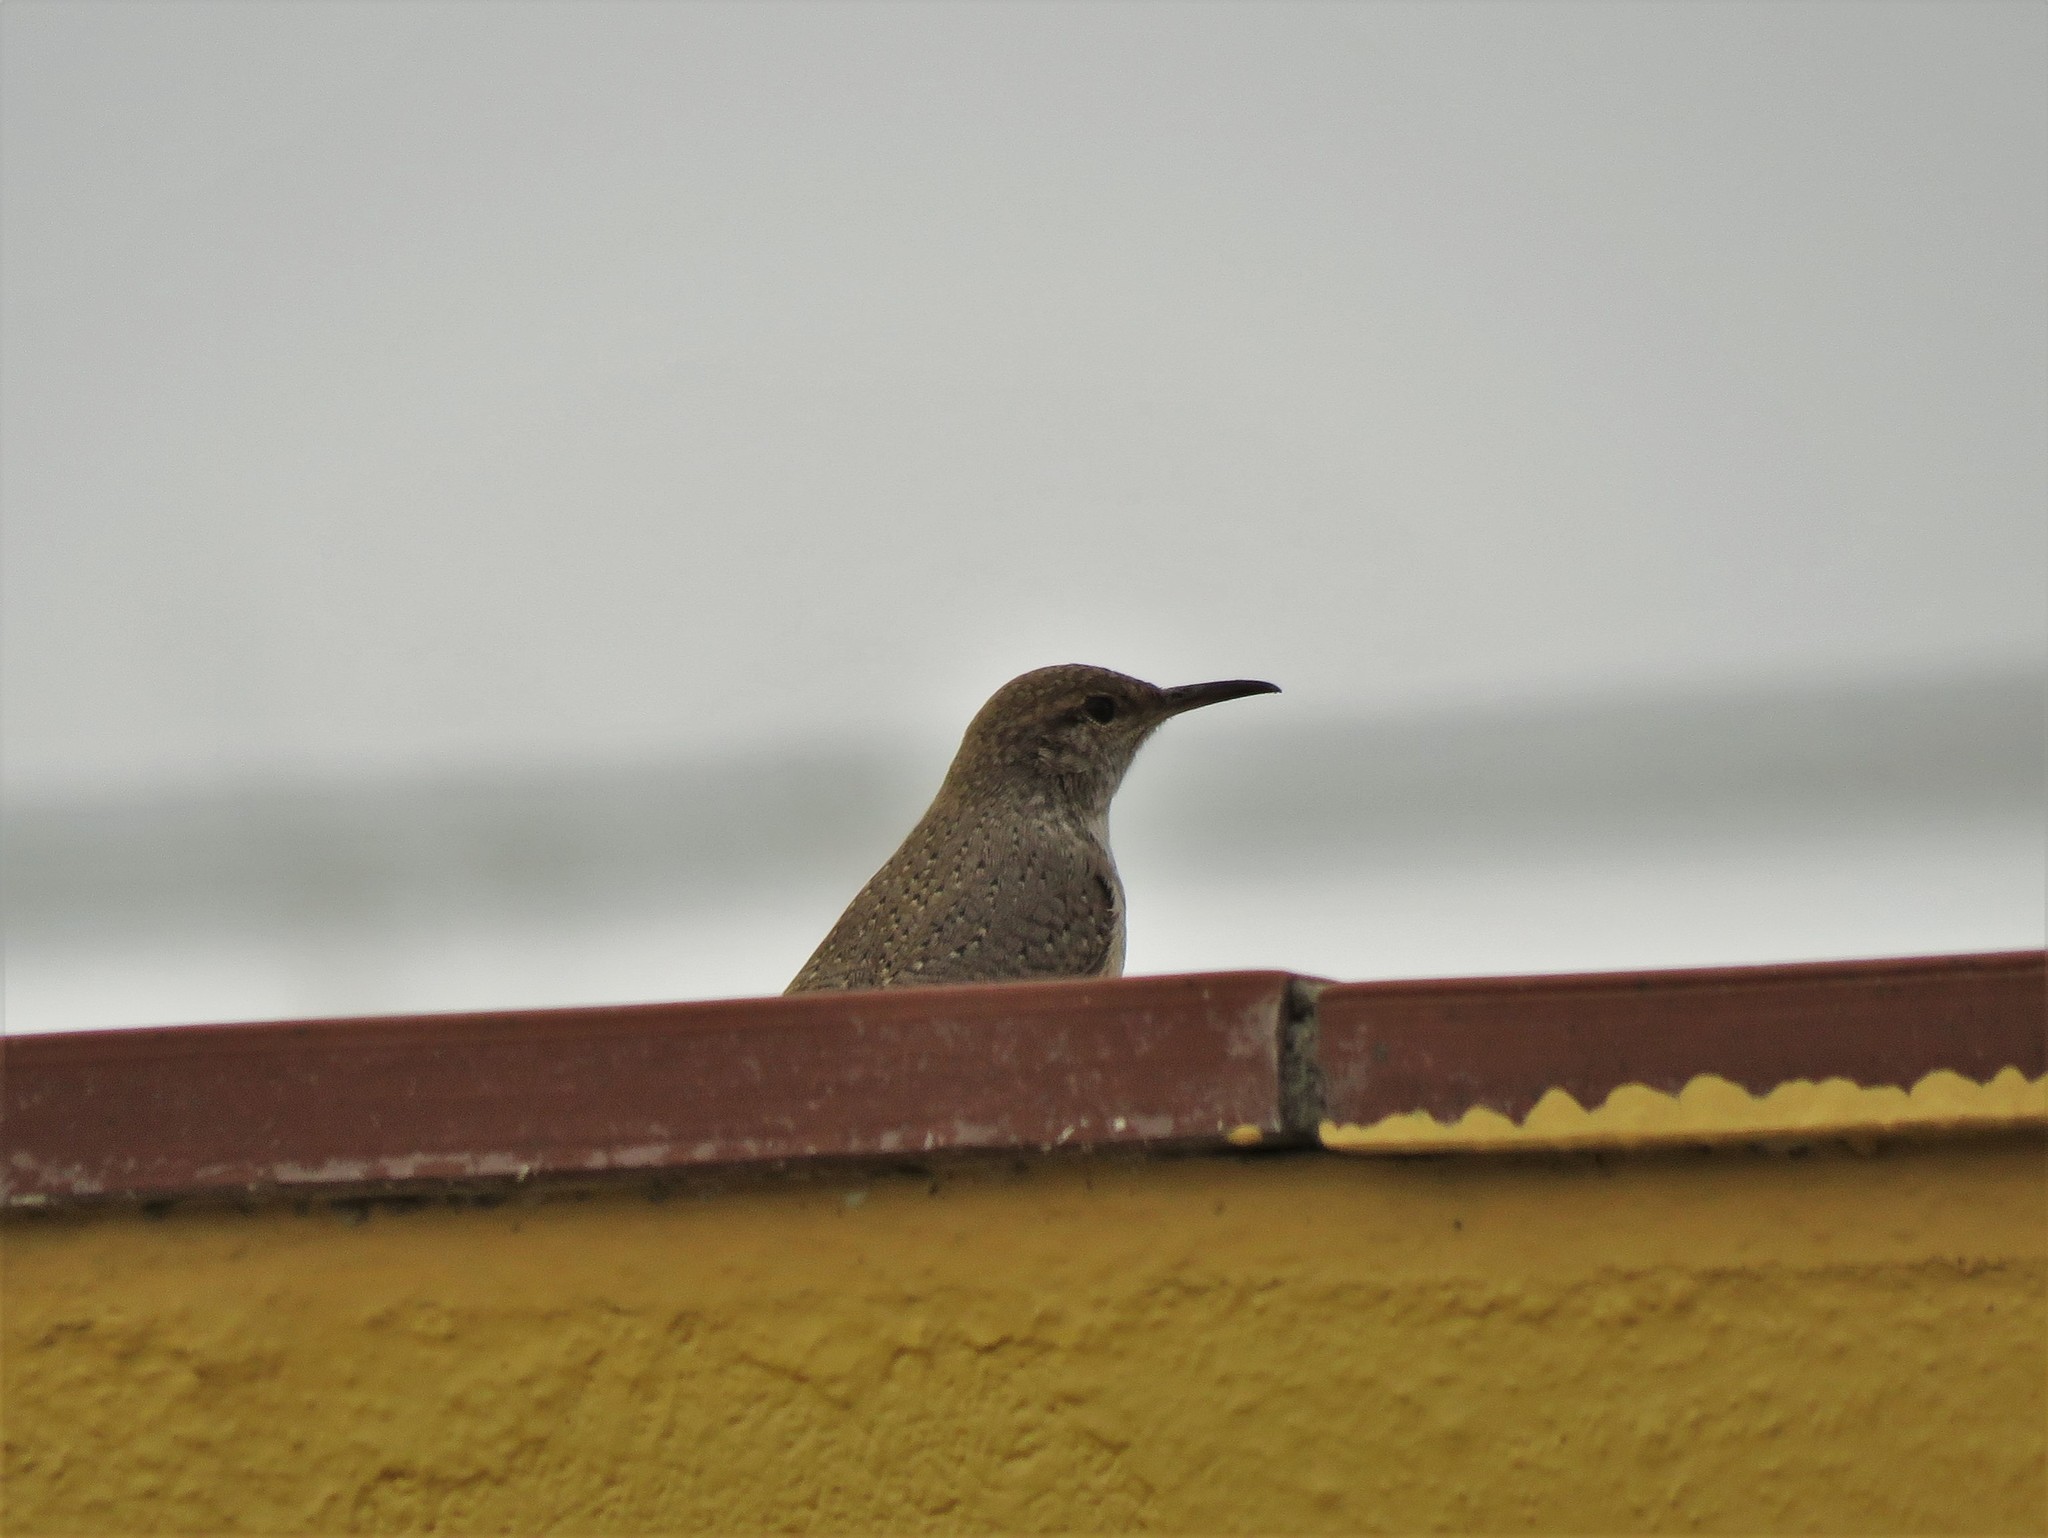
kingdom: Animalia
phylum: Chordata
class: Aves
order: Passeriformes
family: Troglodytidae
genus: Salpinctes
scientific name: Salpinctes obsoletus
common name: Rock wren
